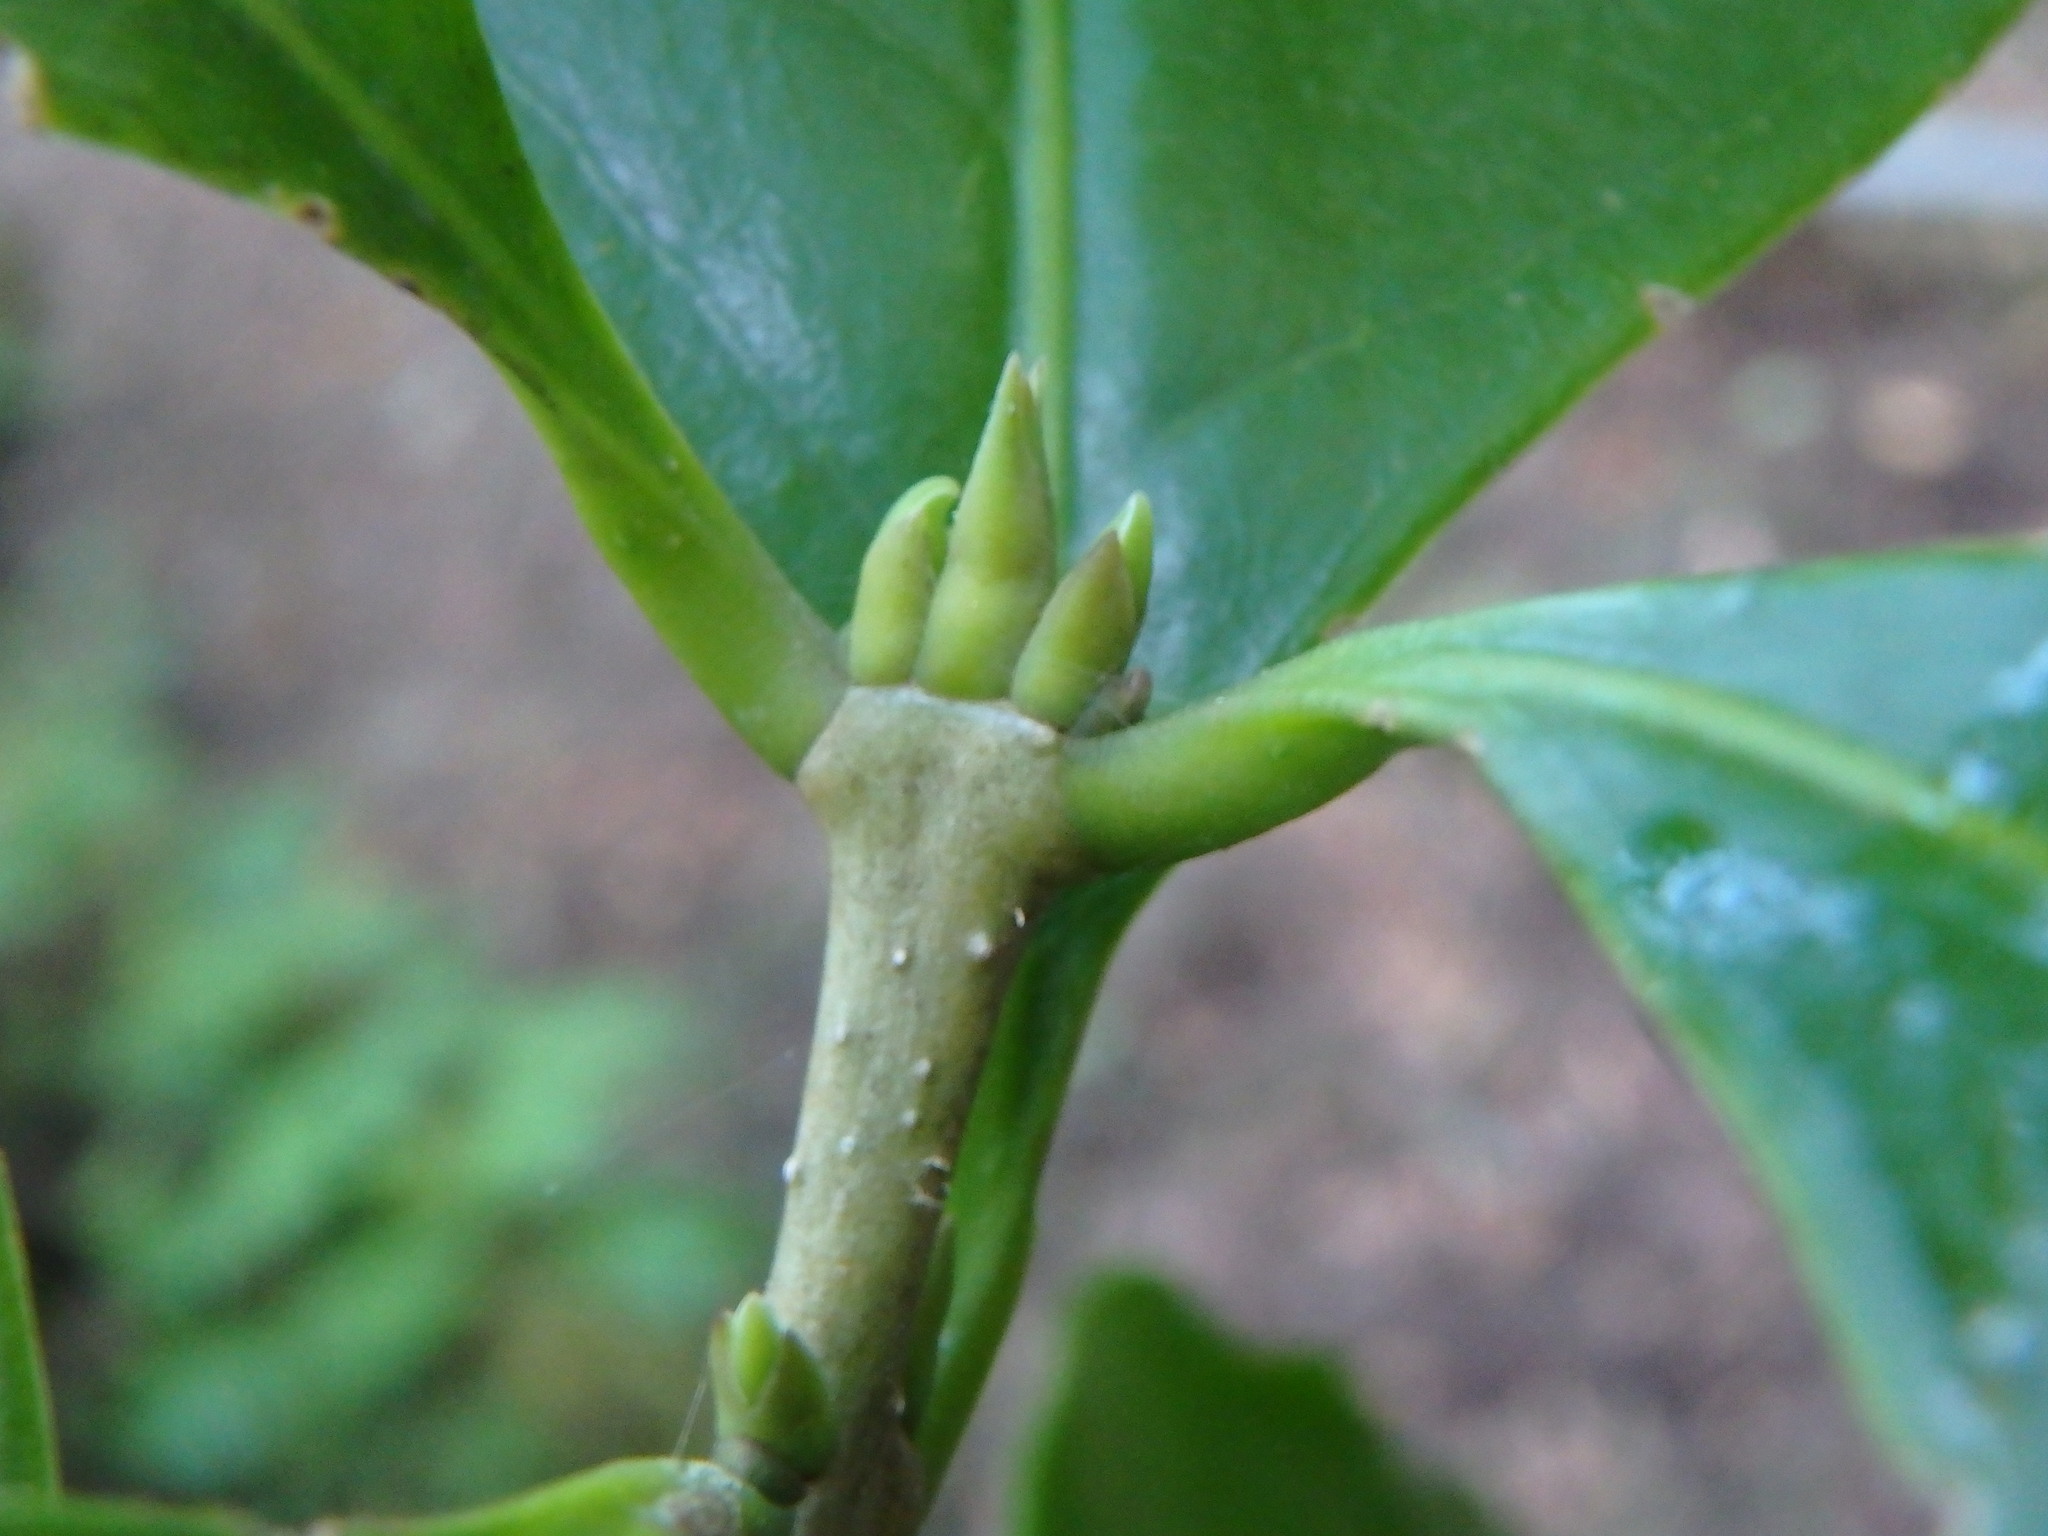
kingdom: Plantae
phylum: Tracheophyta
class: Magnoliopsida
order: Lamiales
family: Oleaceae
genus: Picconia
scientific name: Picconia excelsa
